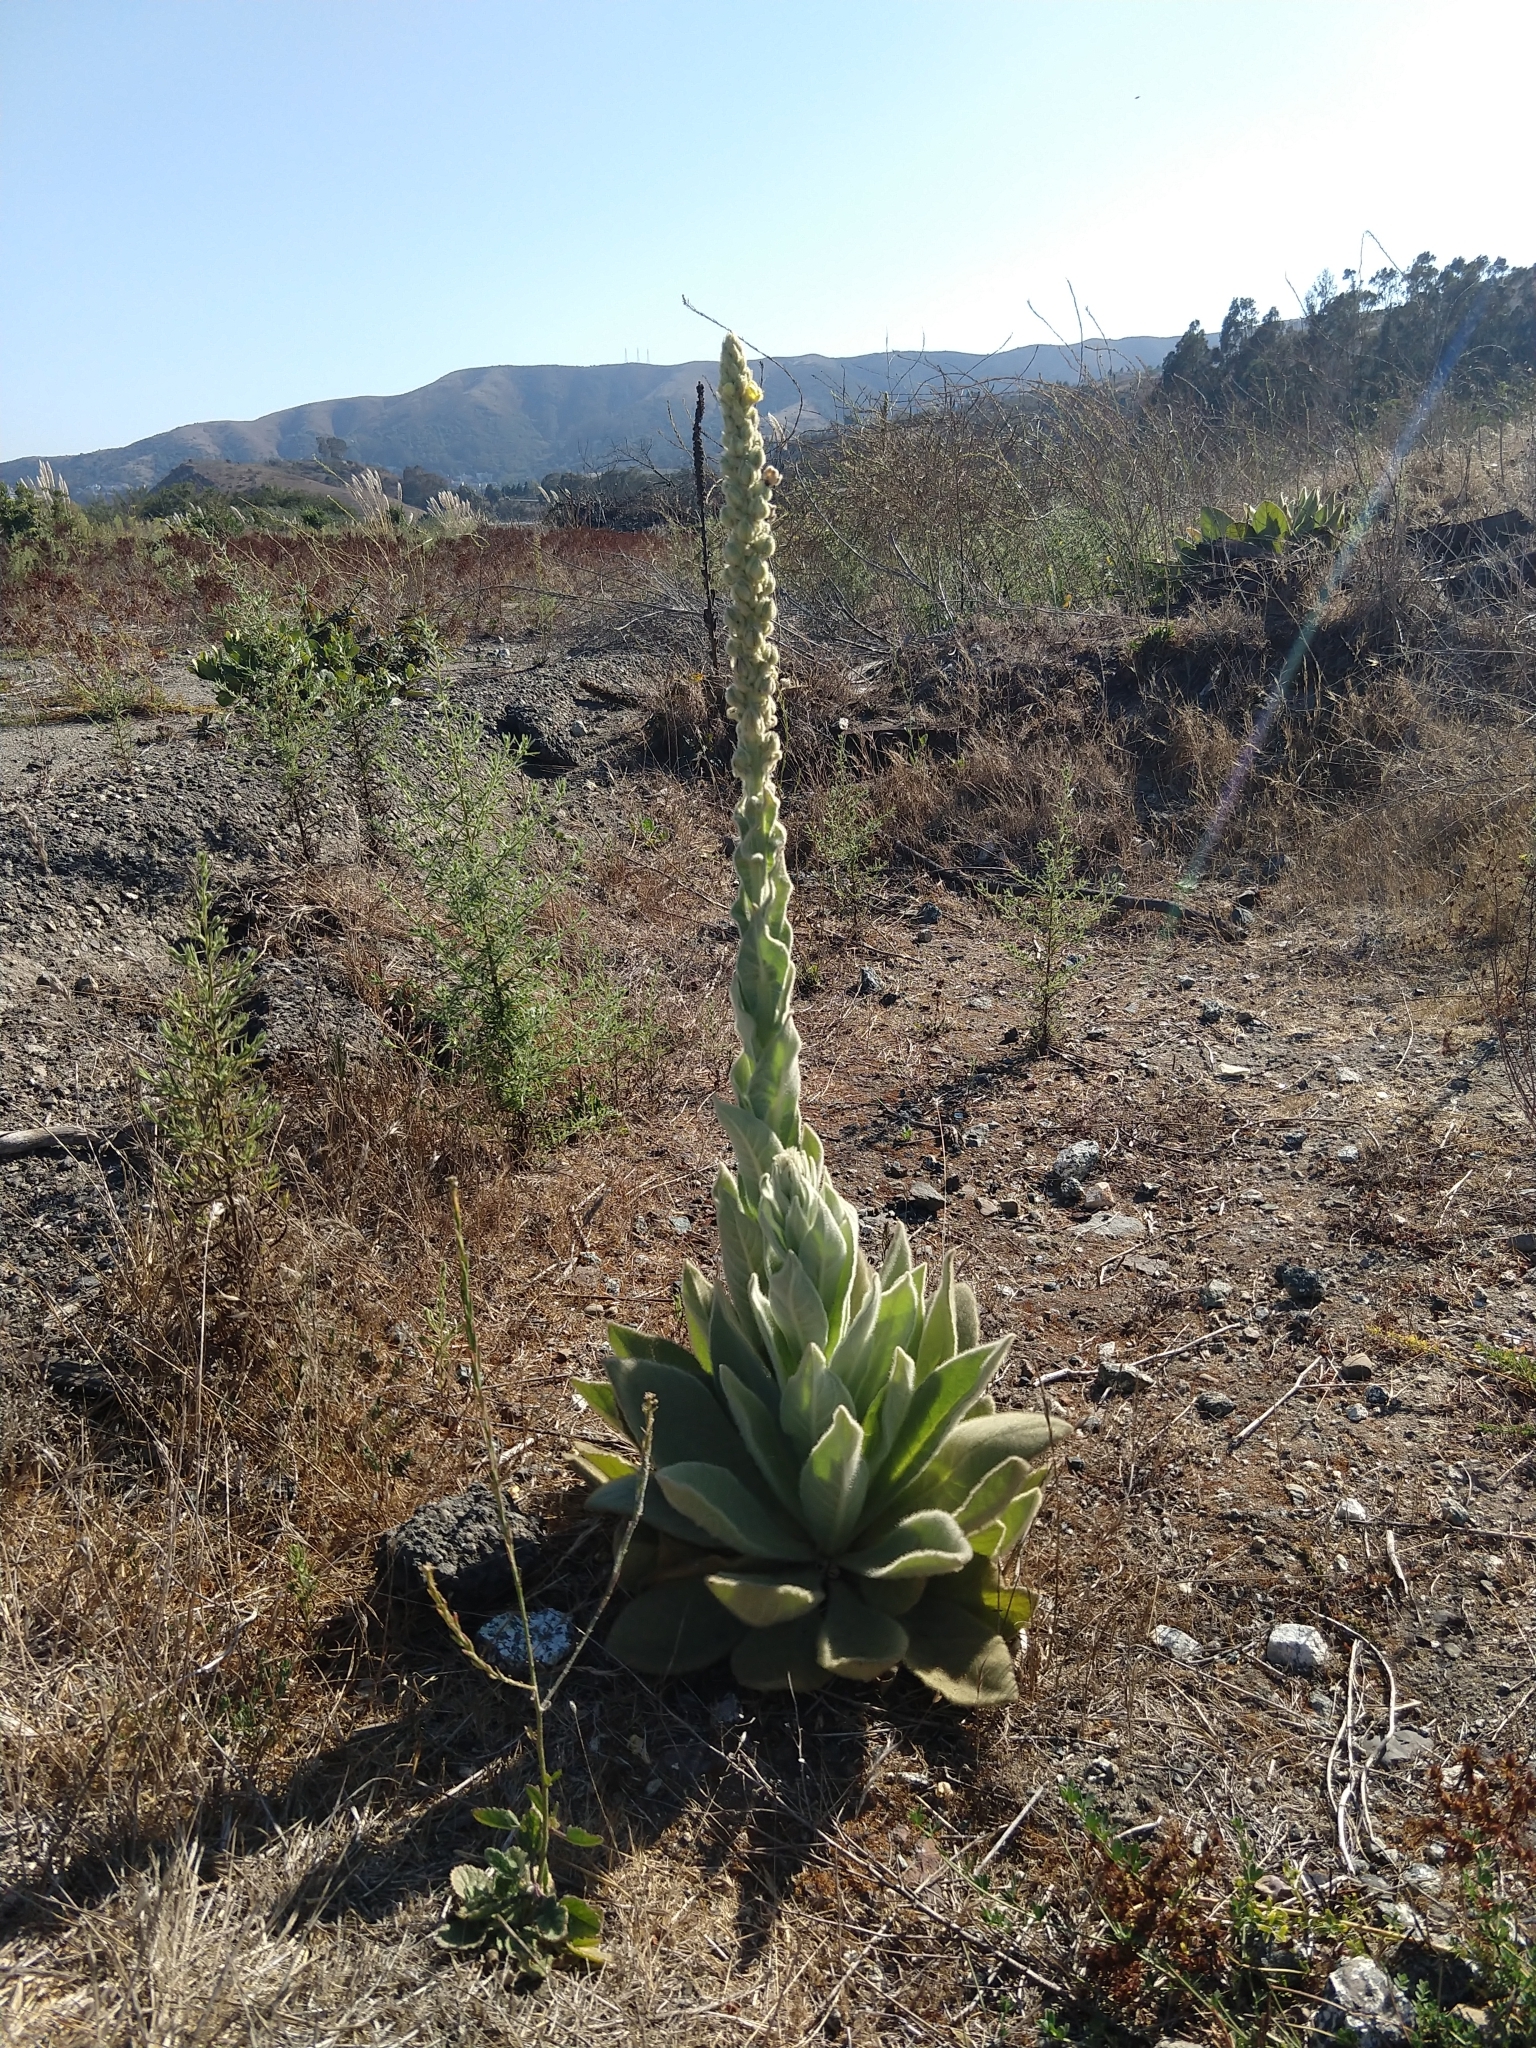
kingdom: Plantae
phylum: Tracheophyta
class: Magnoliopsida
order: Lamiales
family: Scrophulariaceae
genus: Verbascum
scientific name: Verbascum thapsus
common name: Common mullein
